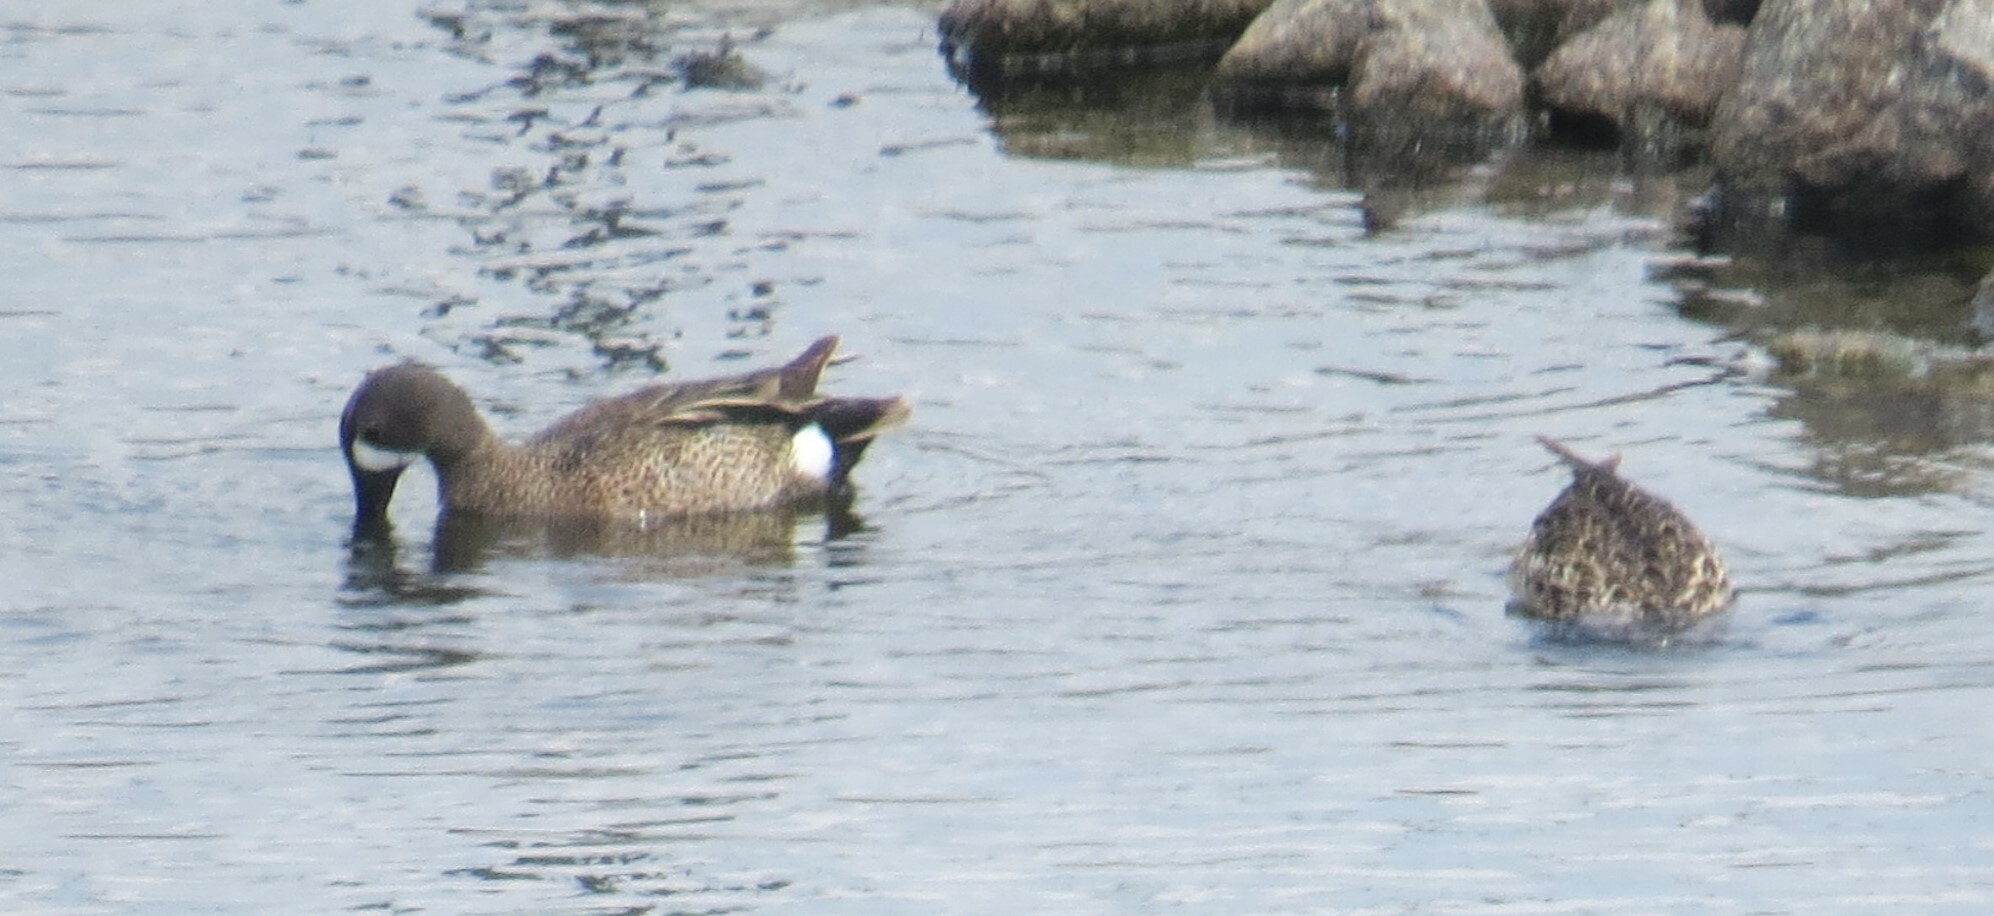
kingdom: Animalia
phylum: Chordata
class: Aves
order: Anseriformes
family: Anatidae
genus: Spatula
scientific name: Spatula discors
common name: Blue-winged teal
